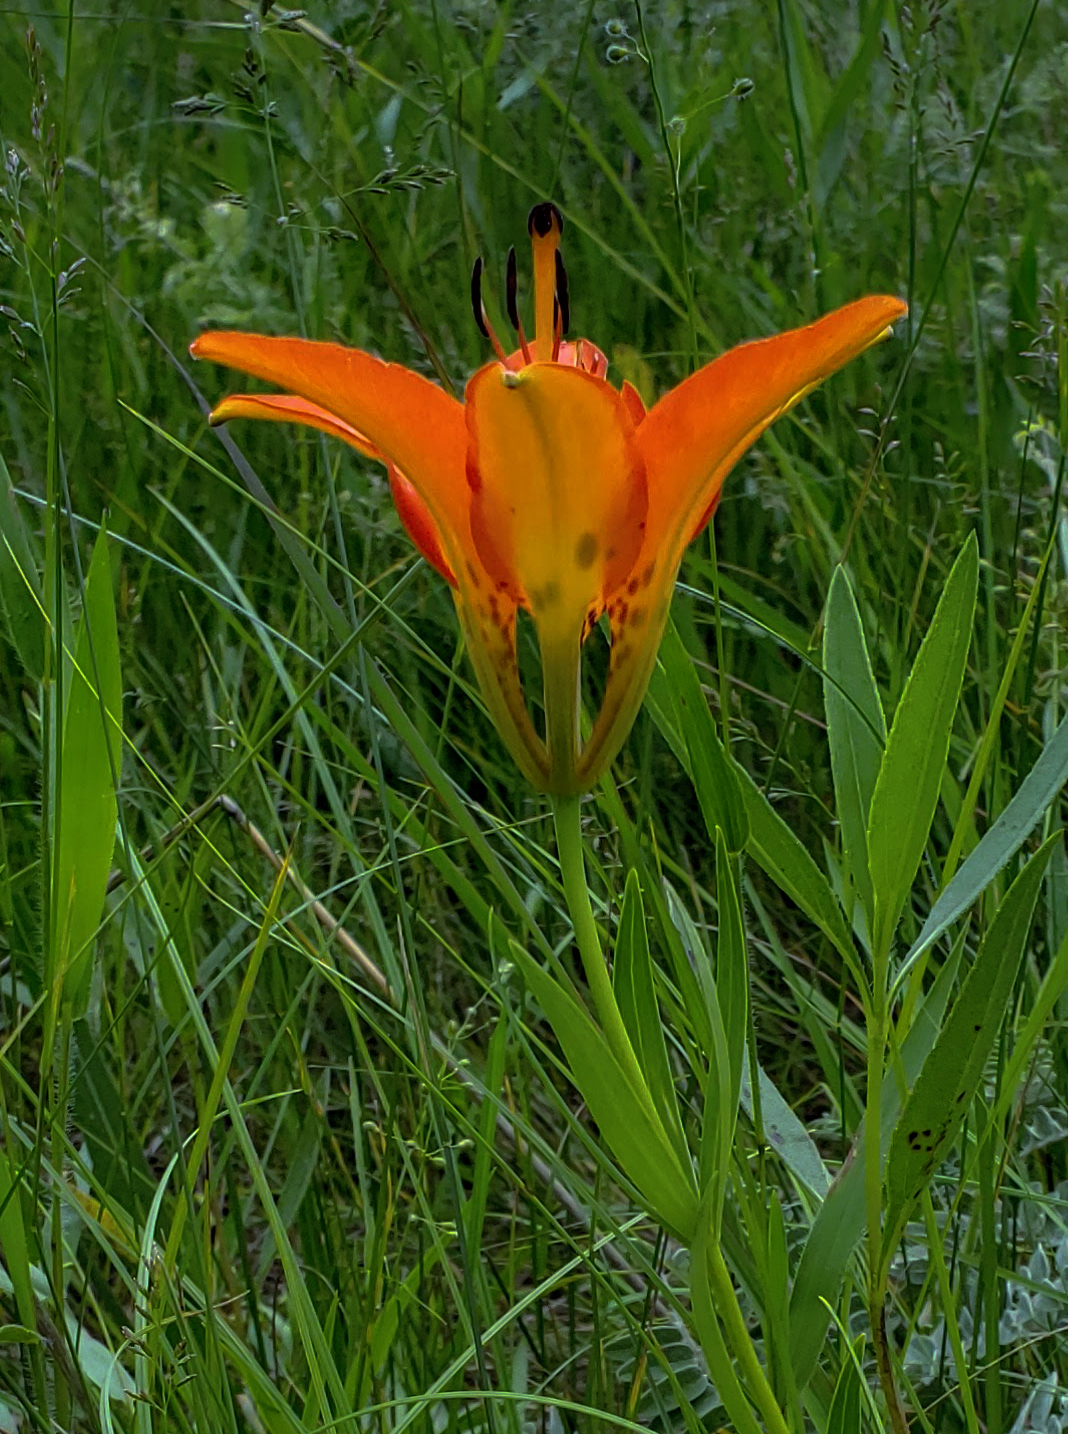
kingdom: Plantae
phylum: Tracheophyta
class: Liliopsida
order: Liliales
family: Liliaceae
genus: Lilium
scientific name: Lilium philadelphicum
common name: Red lily
